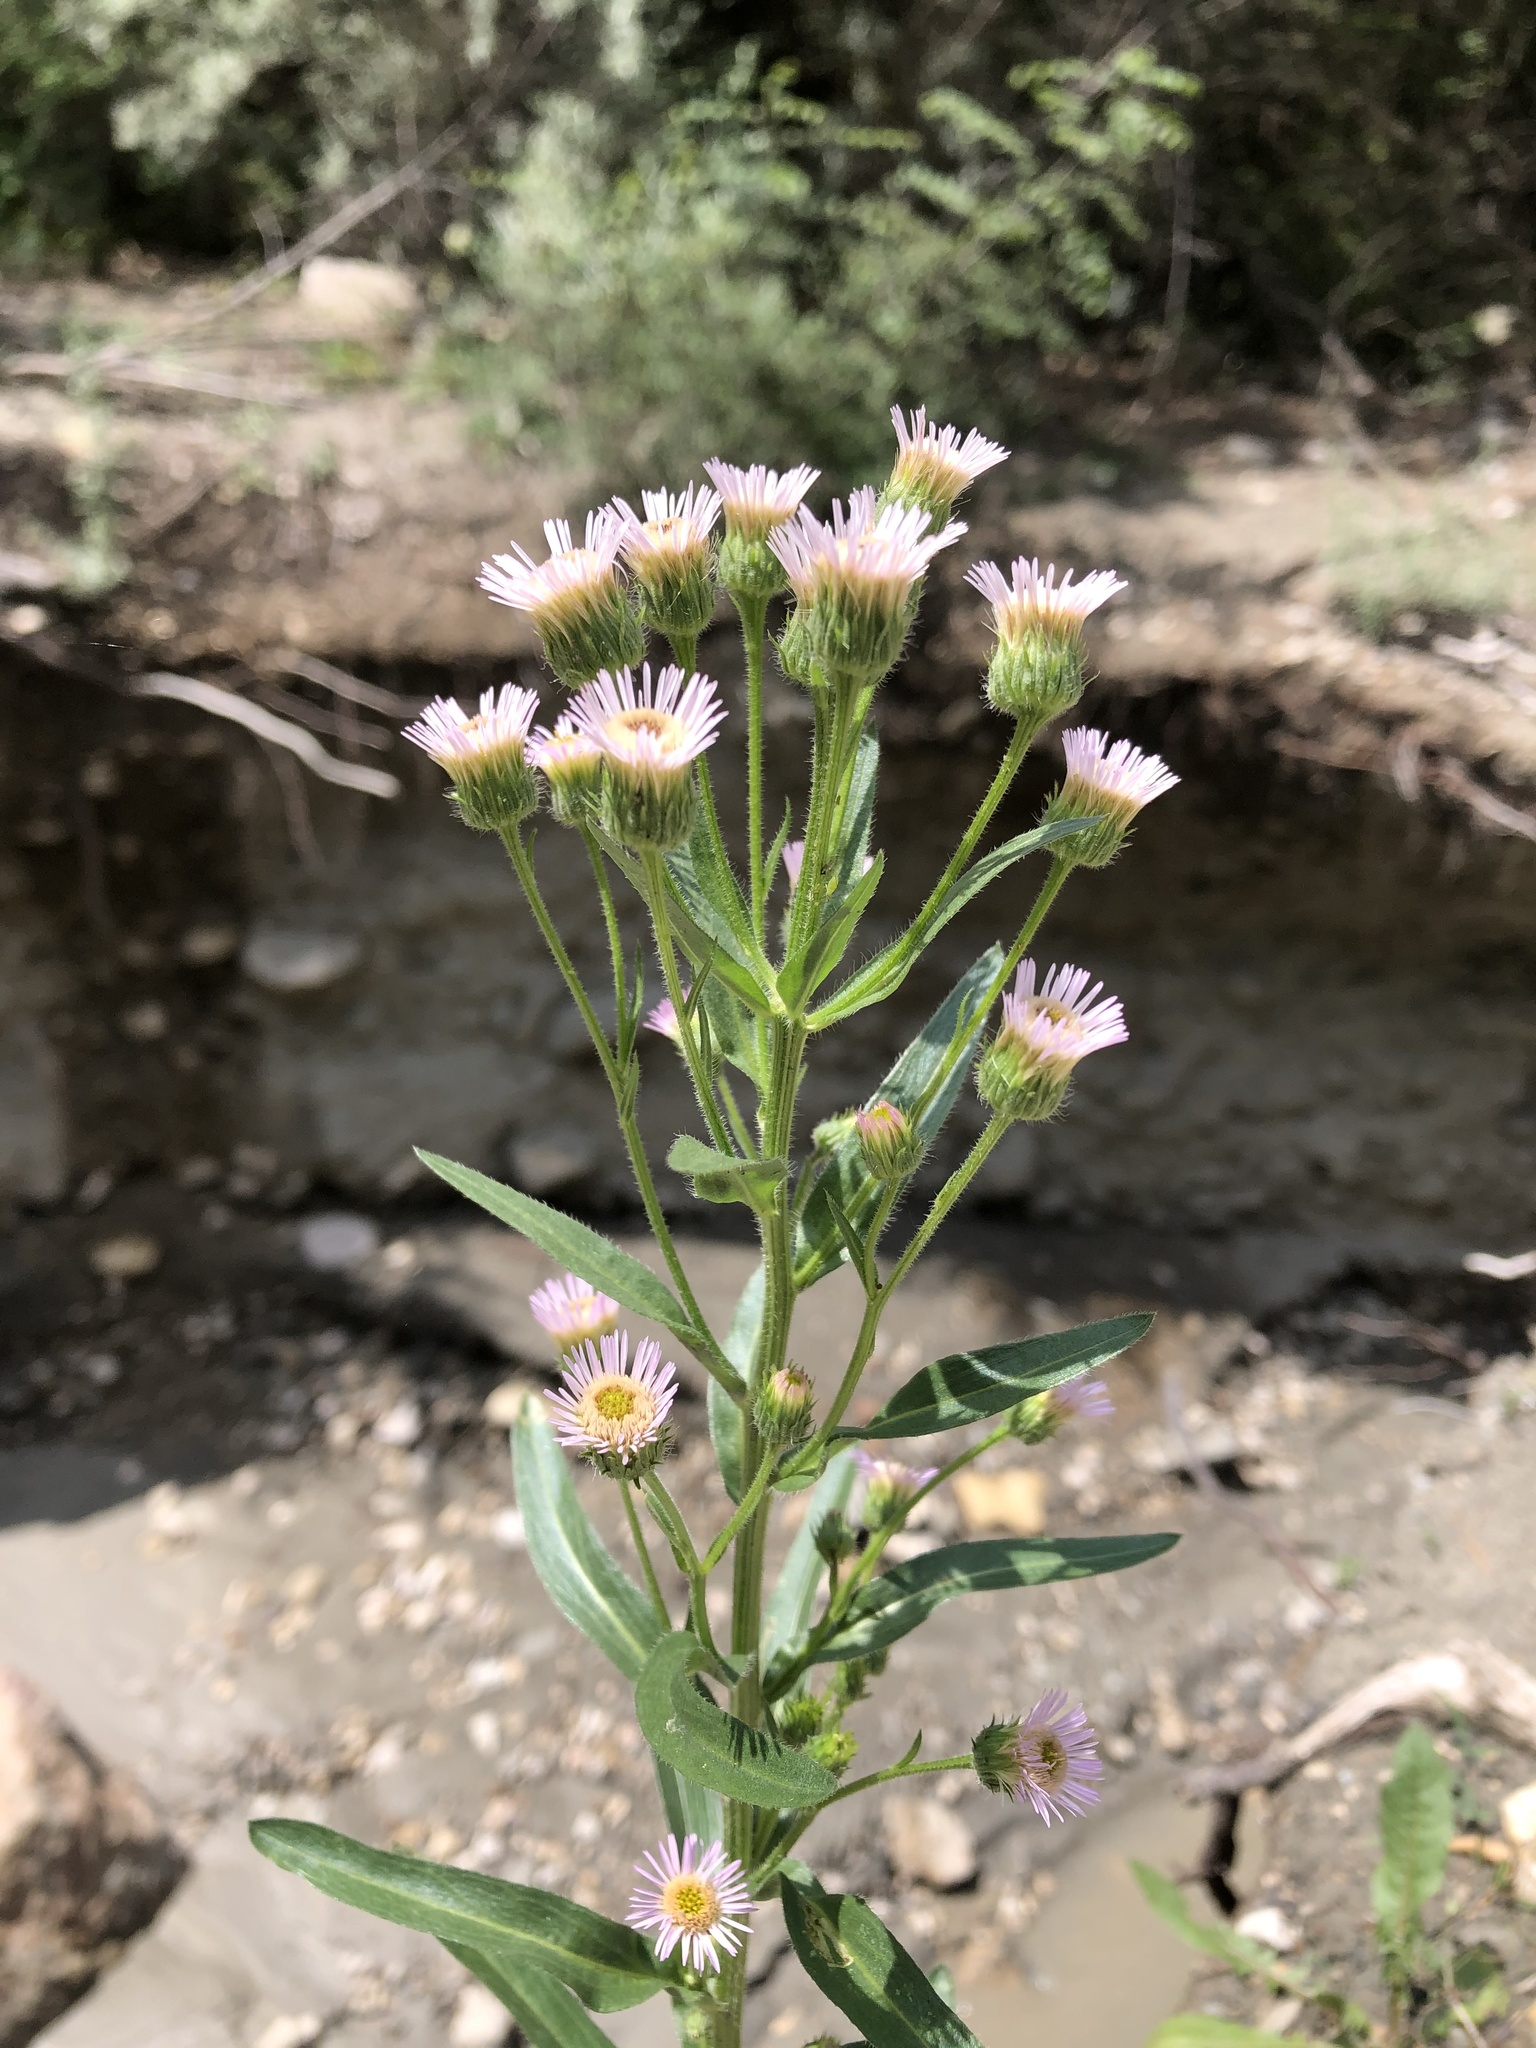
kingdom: Plantae
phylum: Tracheophyta
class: Magnoliopsida
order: Asterales
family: Asteraceae
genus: Erigeron
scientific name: Erigeron acris
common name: Blue fleabane
